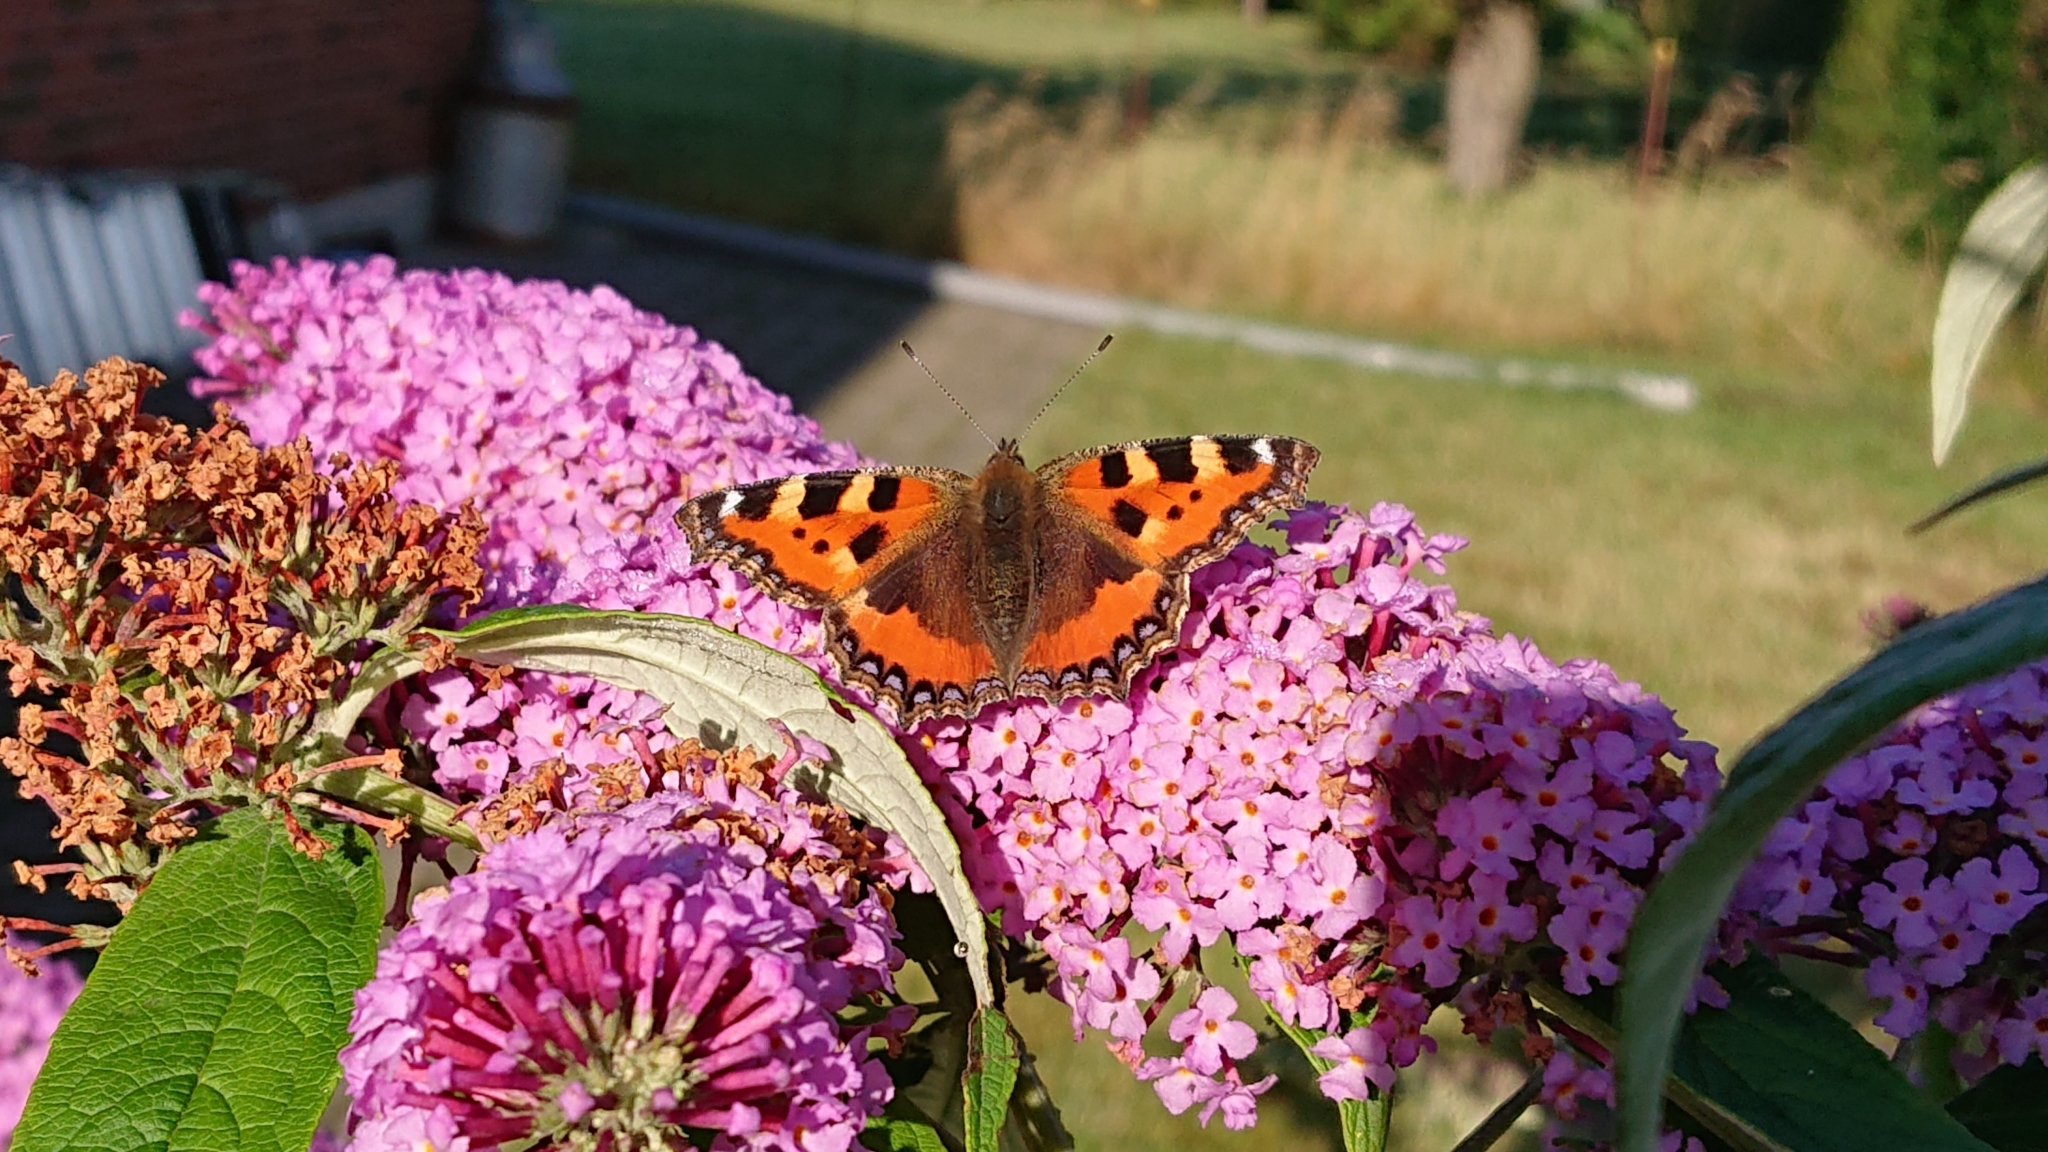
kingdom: Animalia
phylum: Arthropoda
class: Insecta
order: Lepidoptera
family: Nymphalidae
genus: Aglais
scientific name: Aglais urticae
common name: Small tortoiseshell
